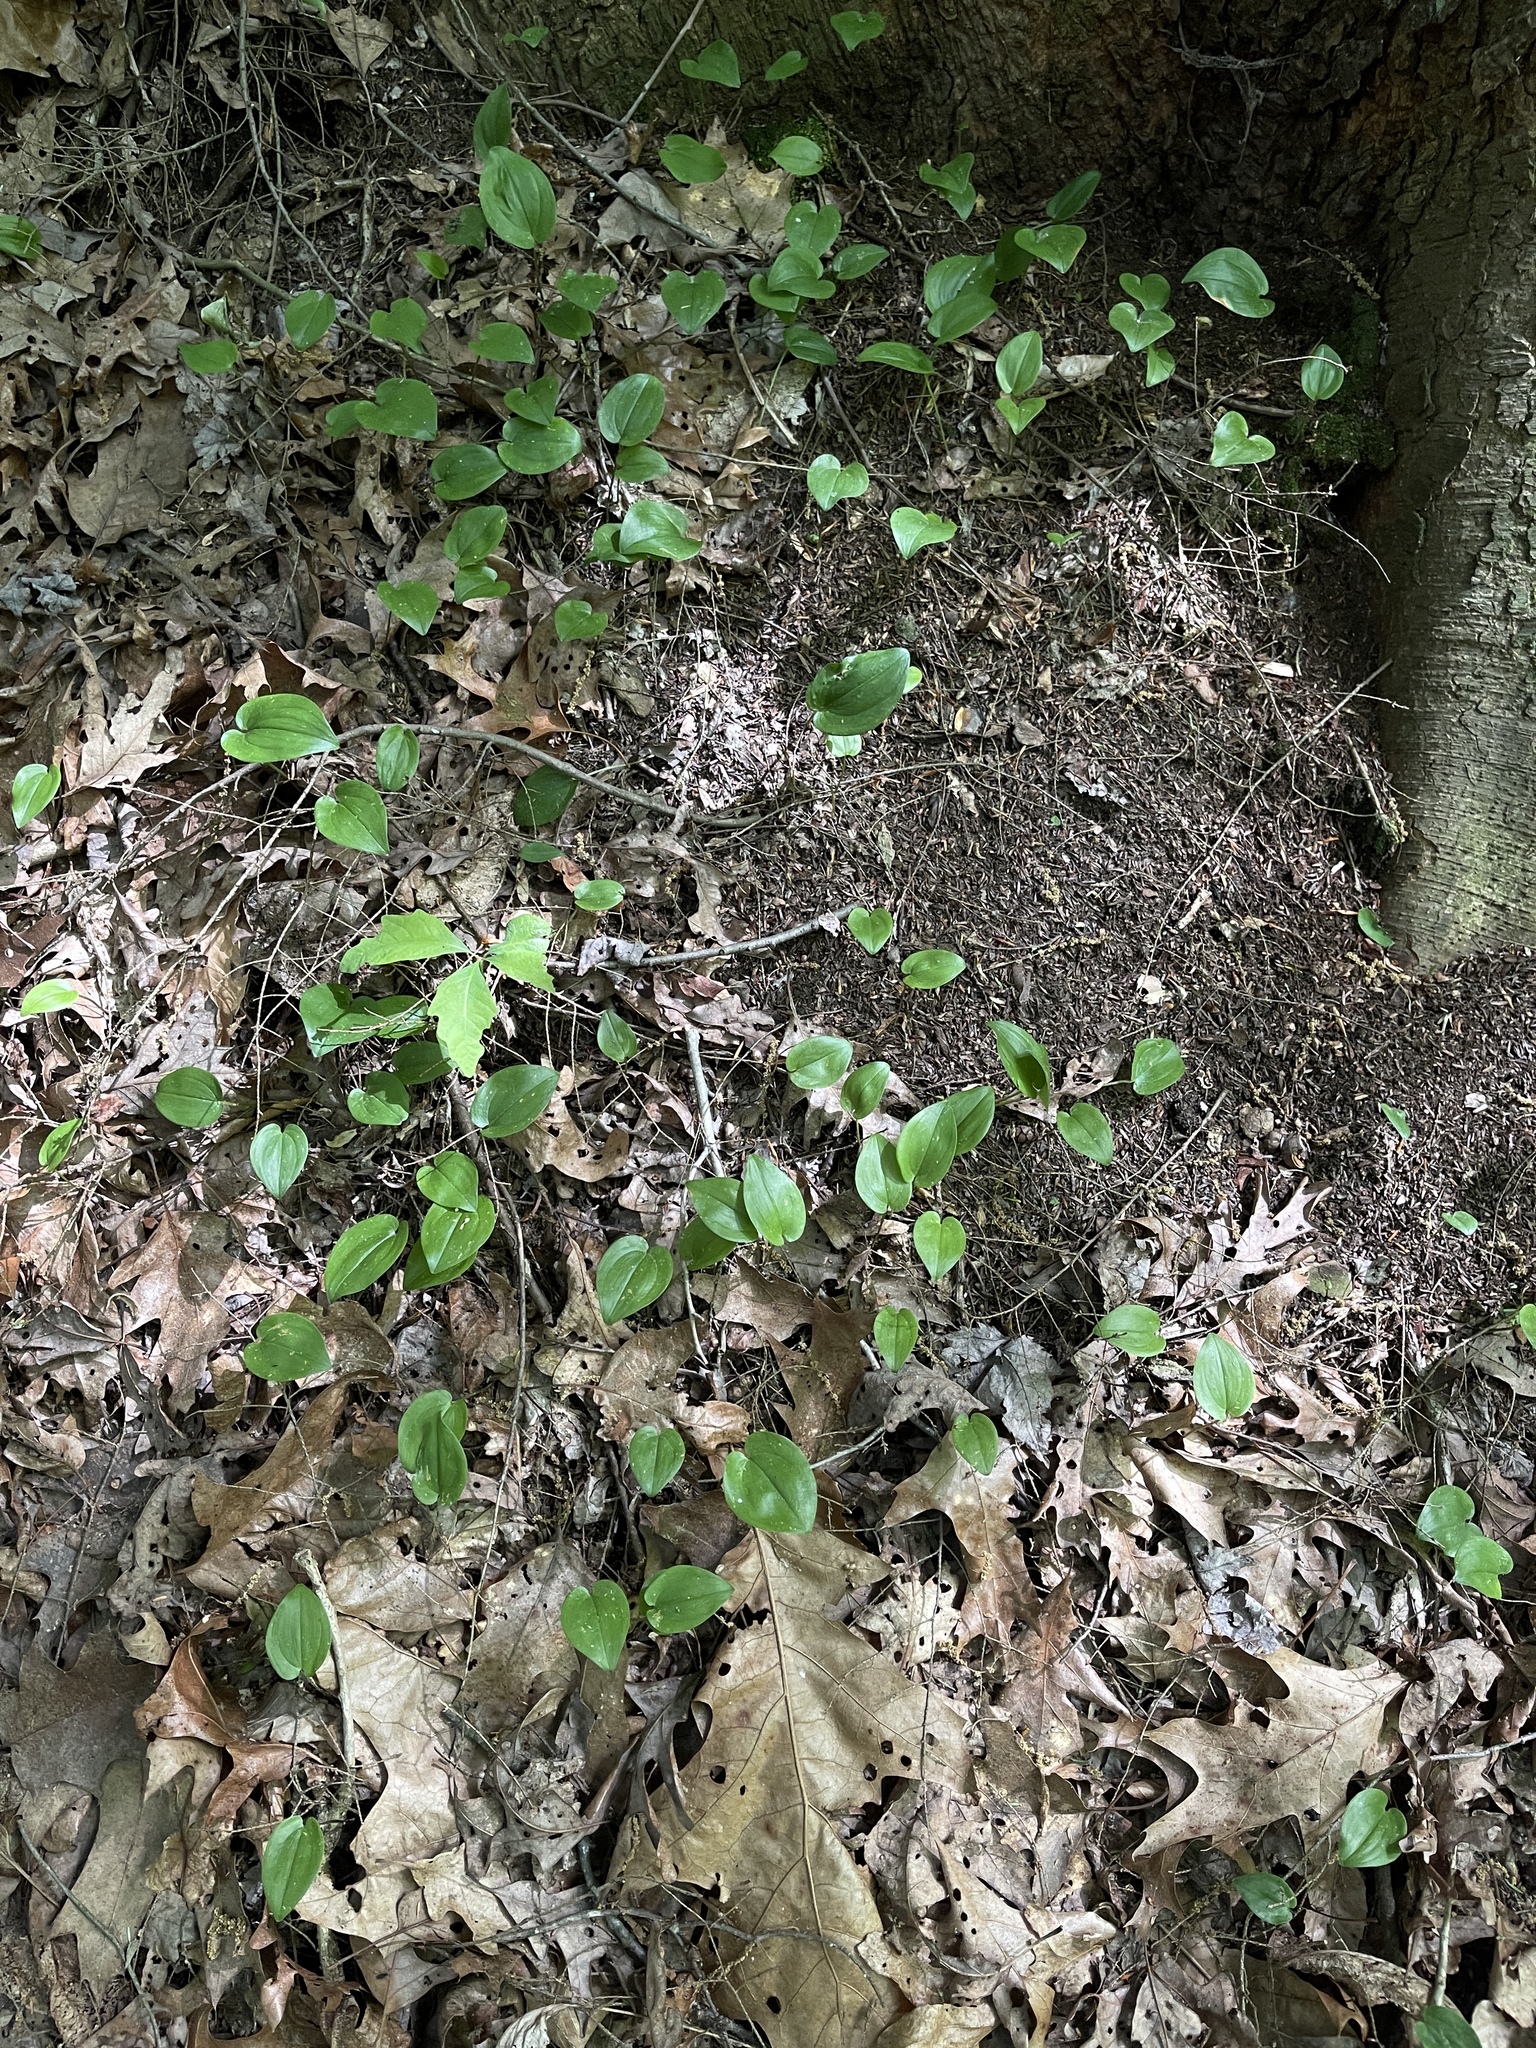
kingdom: Plantae
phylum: Tracheophyta
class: Liliopsida
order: Asparagales
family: Asparagaceae
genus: Maianthemum
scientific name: Maianthemum canadense
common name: False lily-of-the-valley
